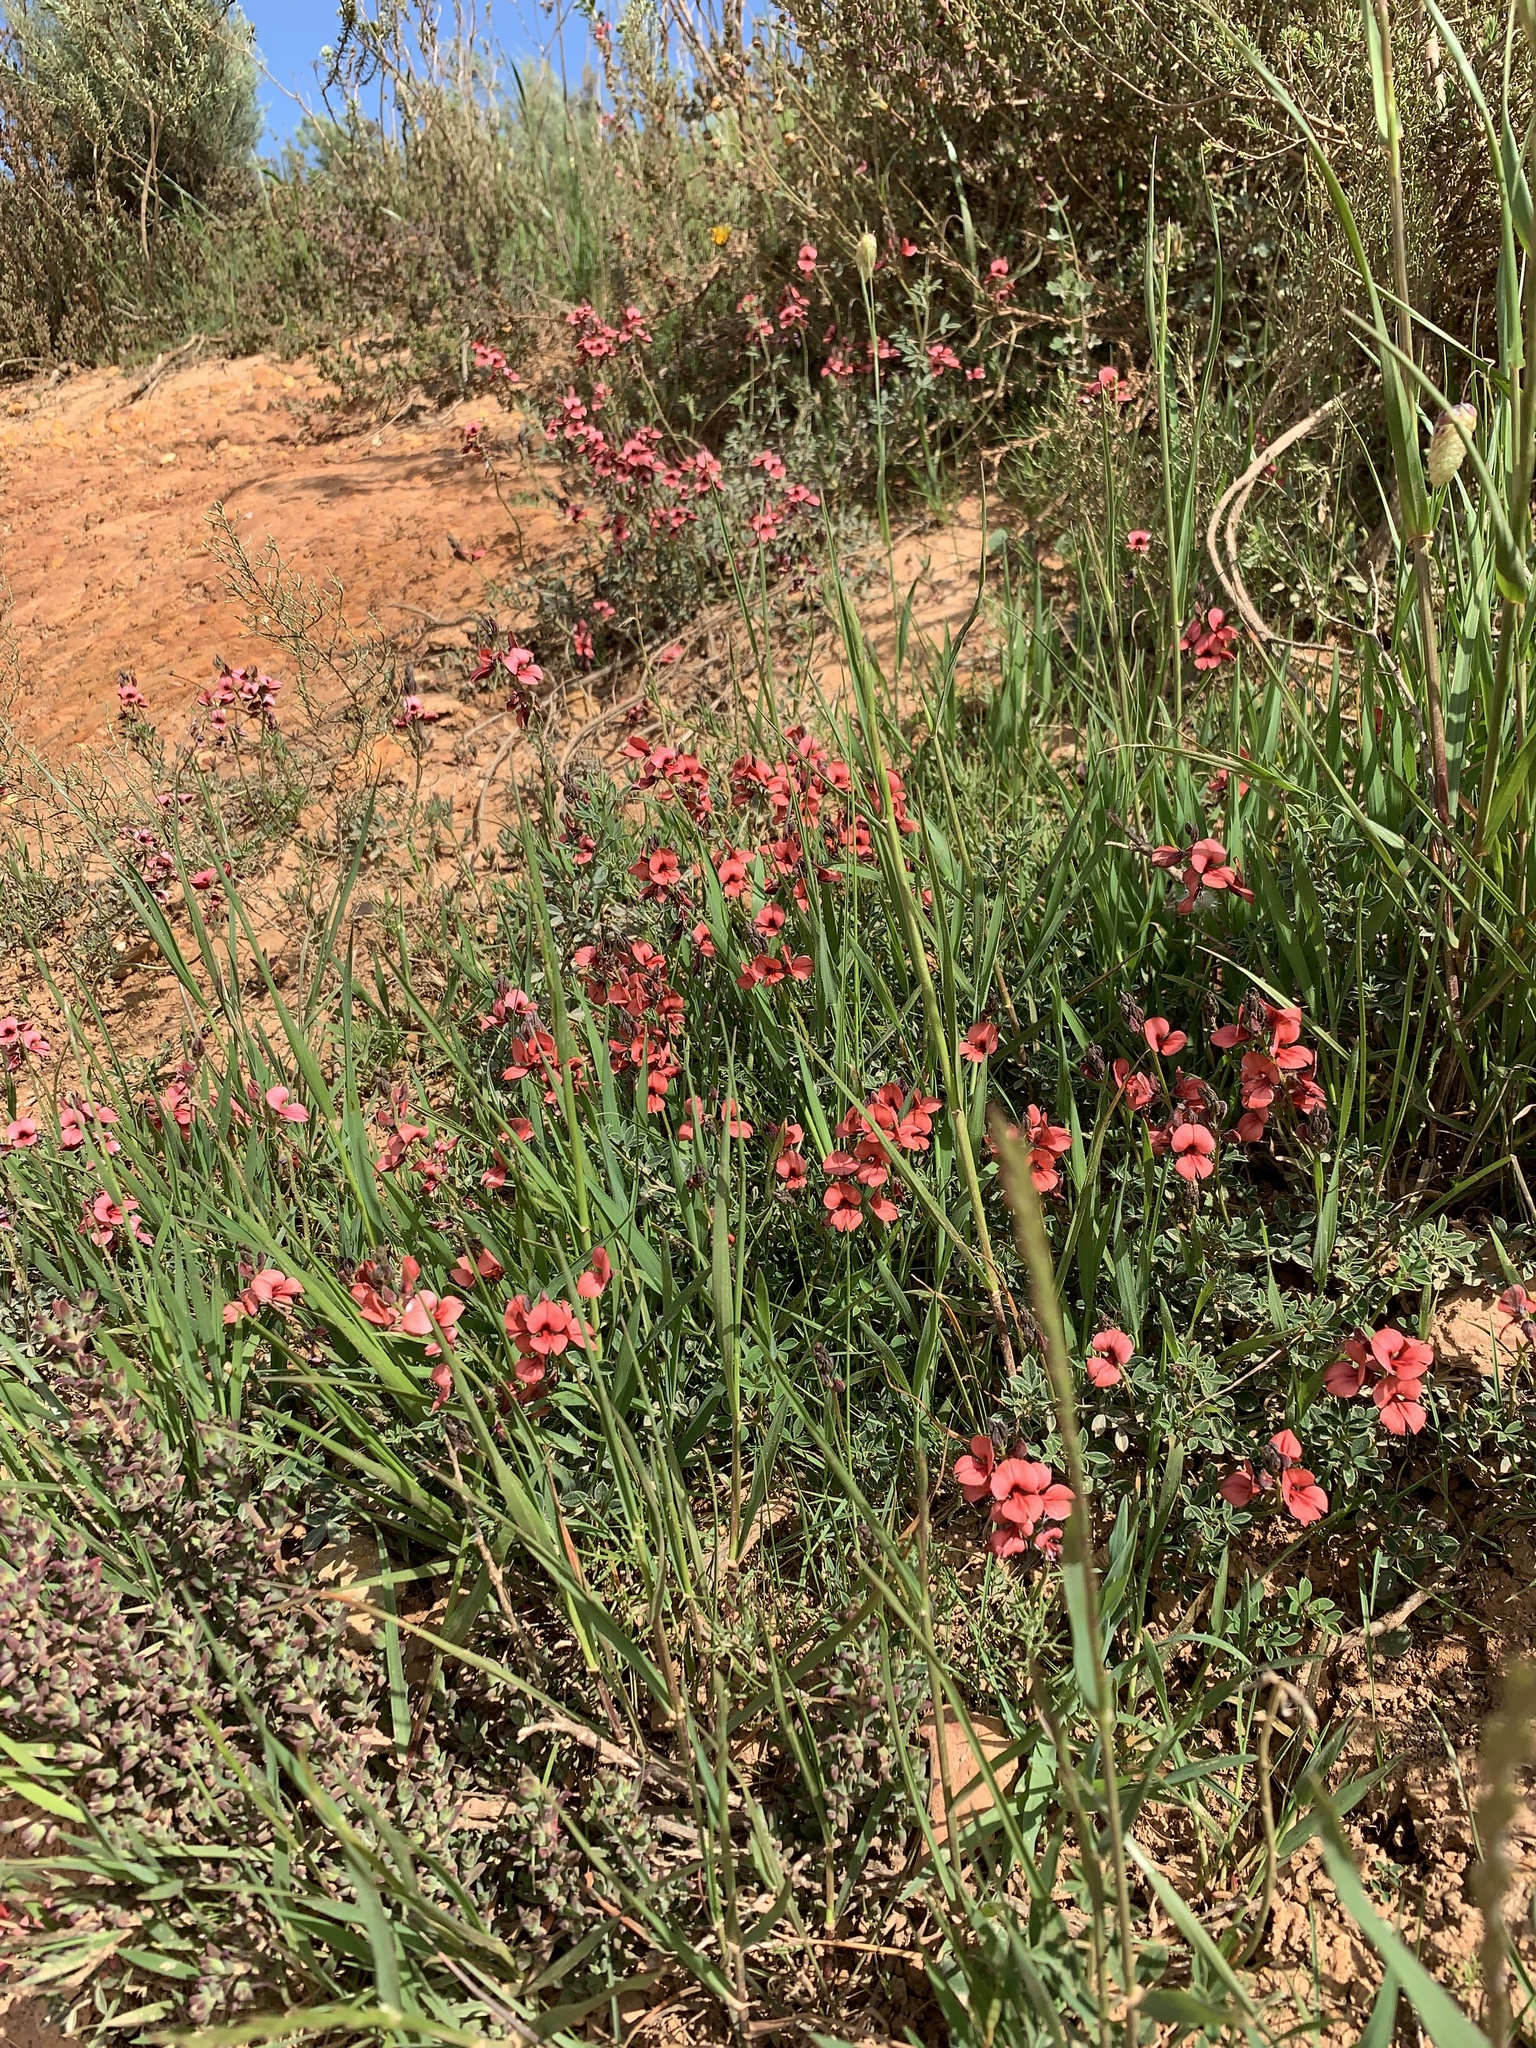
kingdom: Plantae
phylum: Tracheophyta
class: Magnoliopsida
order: Fabales
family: Fabaceae
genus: Indigofera
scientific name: Indigofera heterophylla
